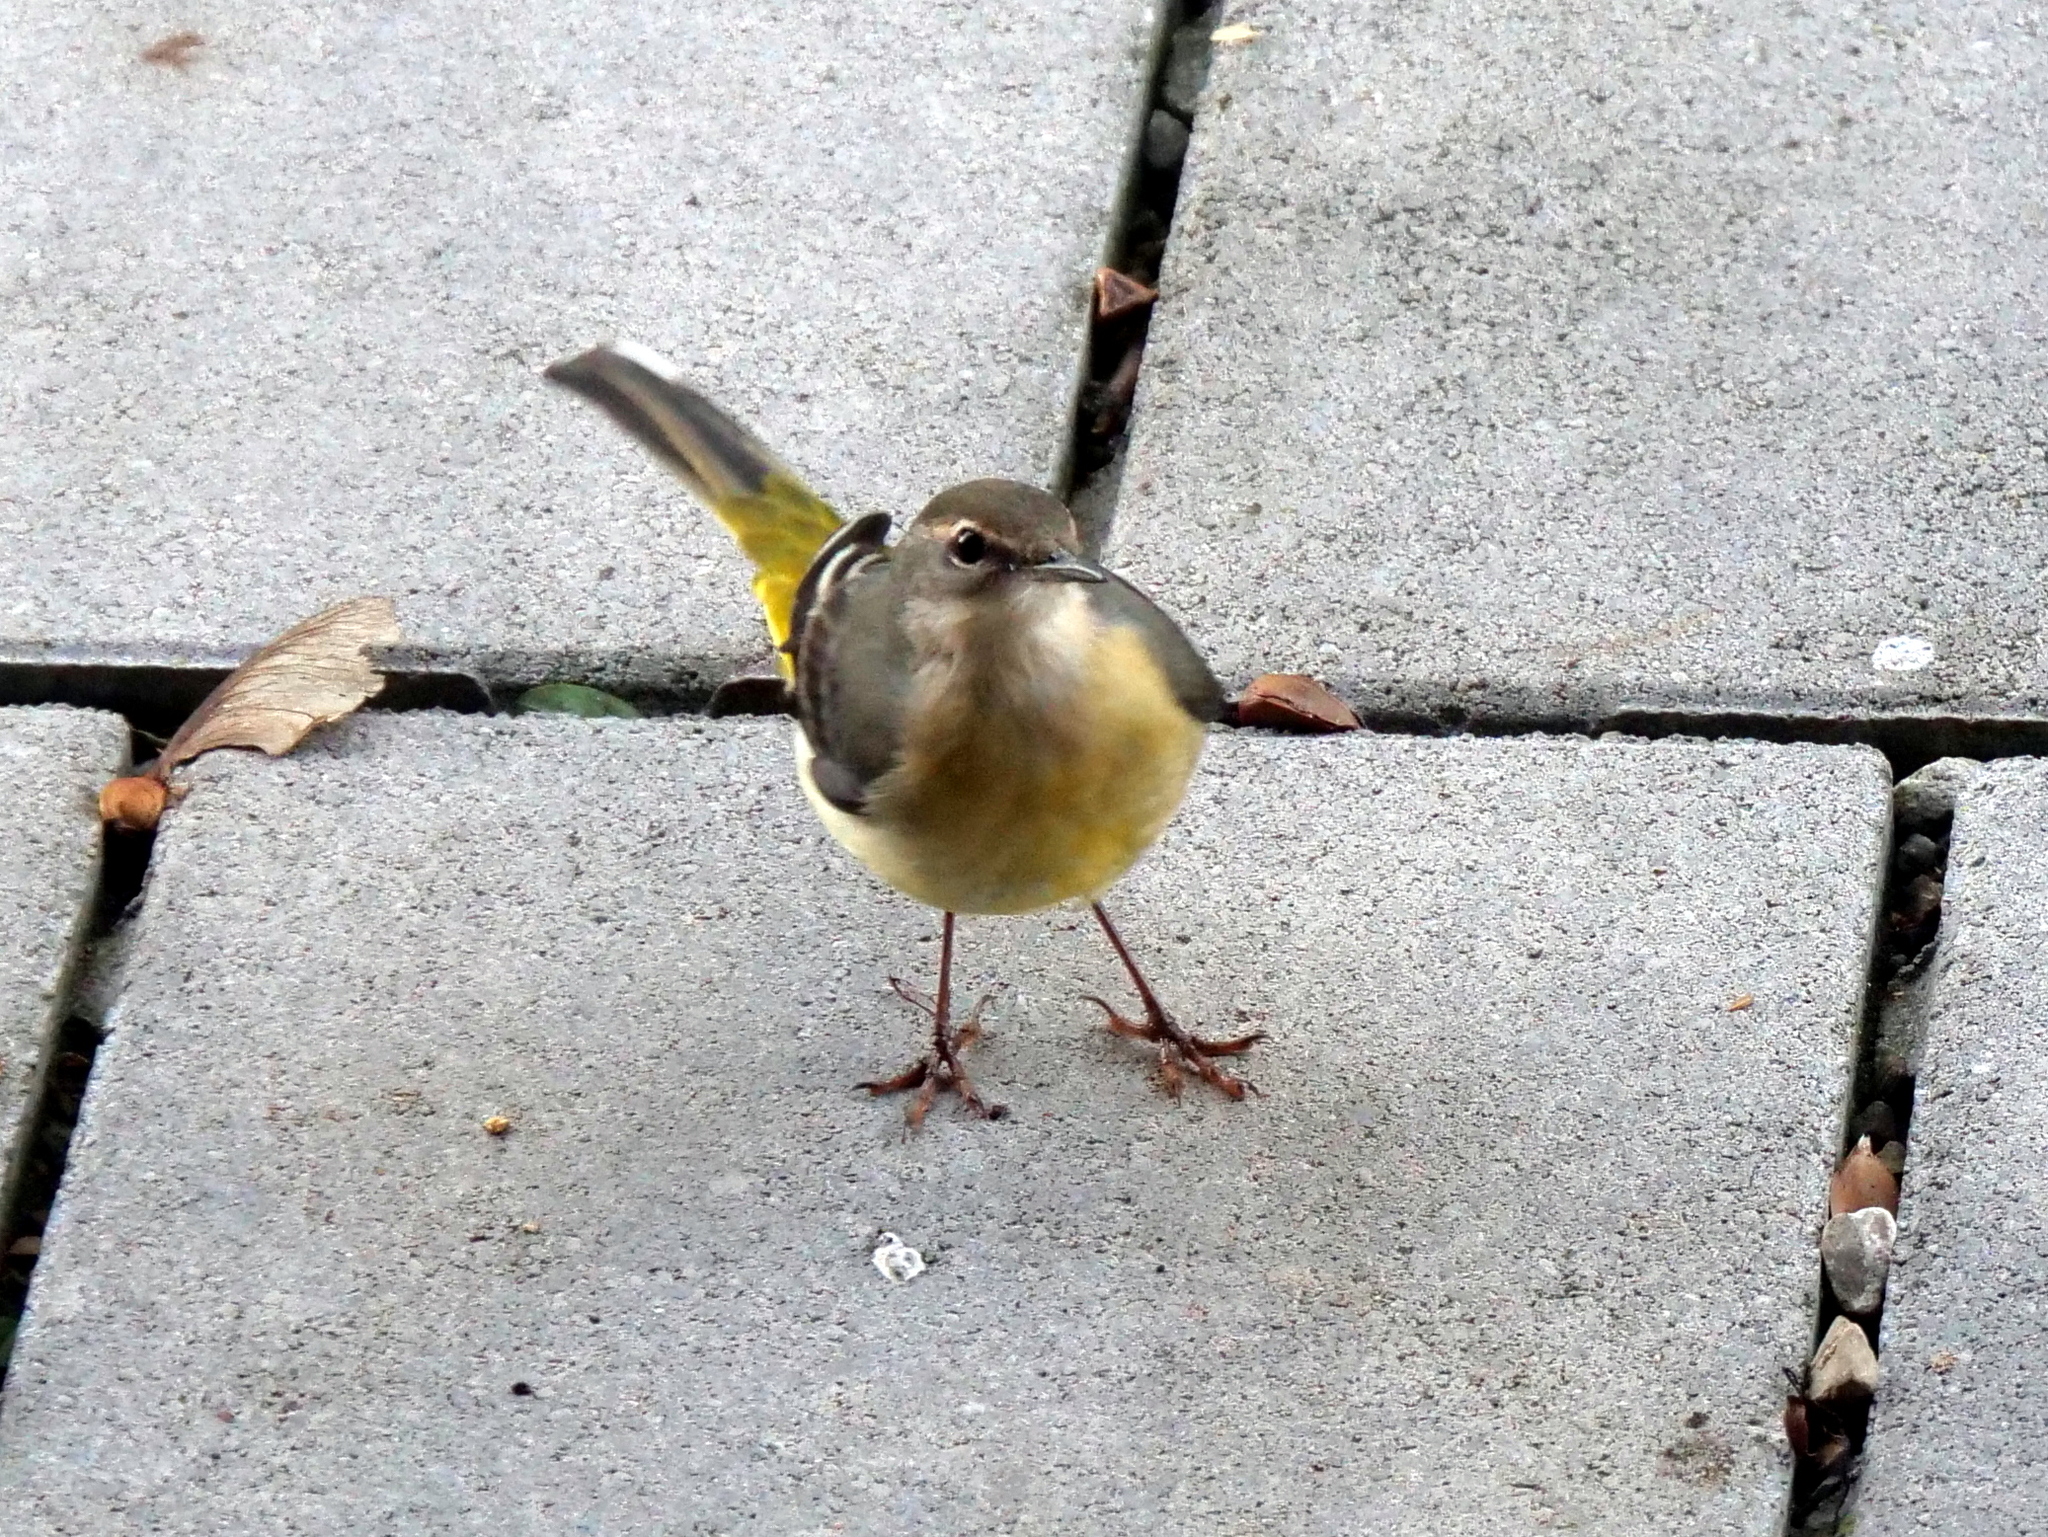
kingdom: Animalia
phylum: Chordata
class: Aves
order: Passeriformes
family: Motacillidae
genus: Motacilla
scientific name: Motacilla cinerea
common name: Grey wagtail
